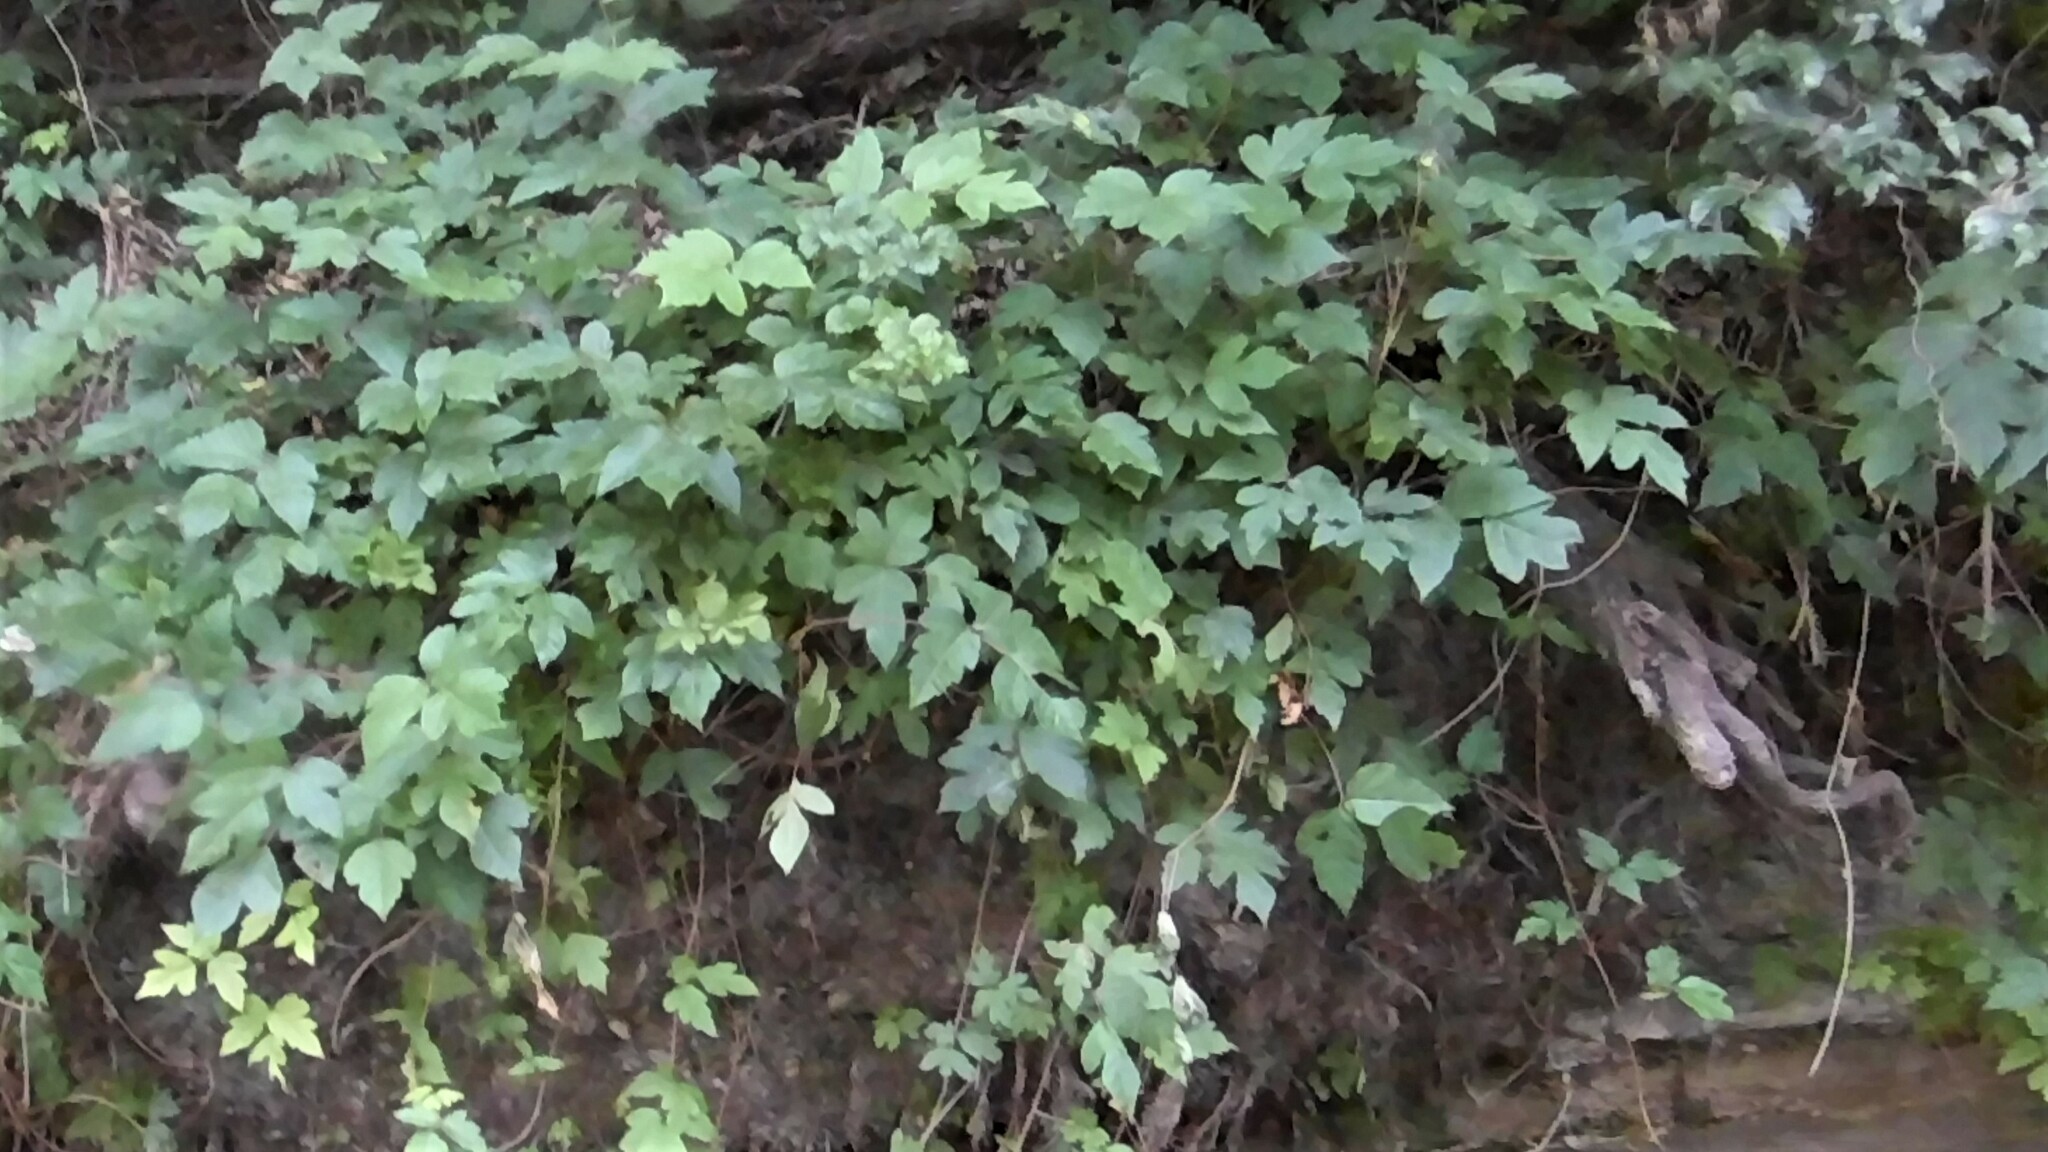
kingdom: Plantae
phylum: Tracheophyta
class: Magnoliopsida
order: Sapindales
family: Anacardiaceae
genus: Toxicodendron
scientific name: Toxicodendron radicans
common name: Poison ivy
